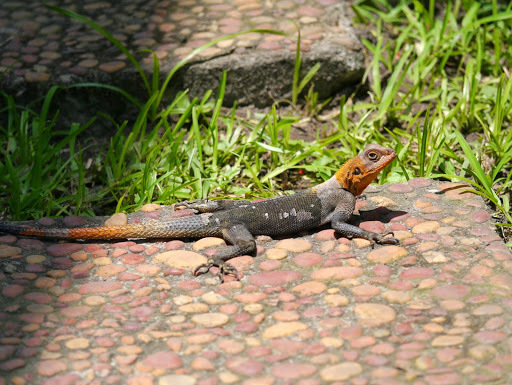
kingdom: Animalia
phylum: Chordata
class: Squamata
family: Agamidae
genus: Agama
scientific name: Agama agama
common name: Common agama
